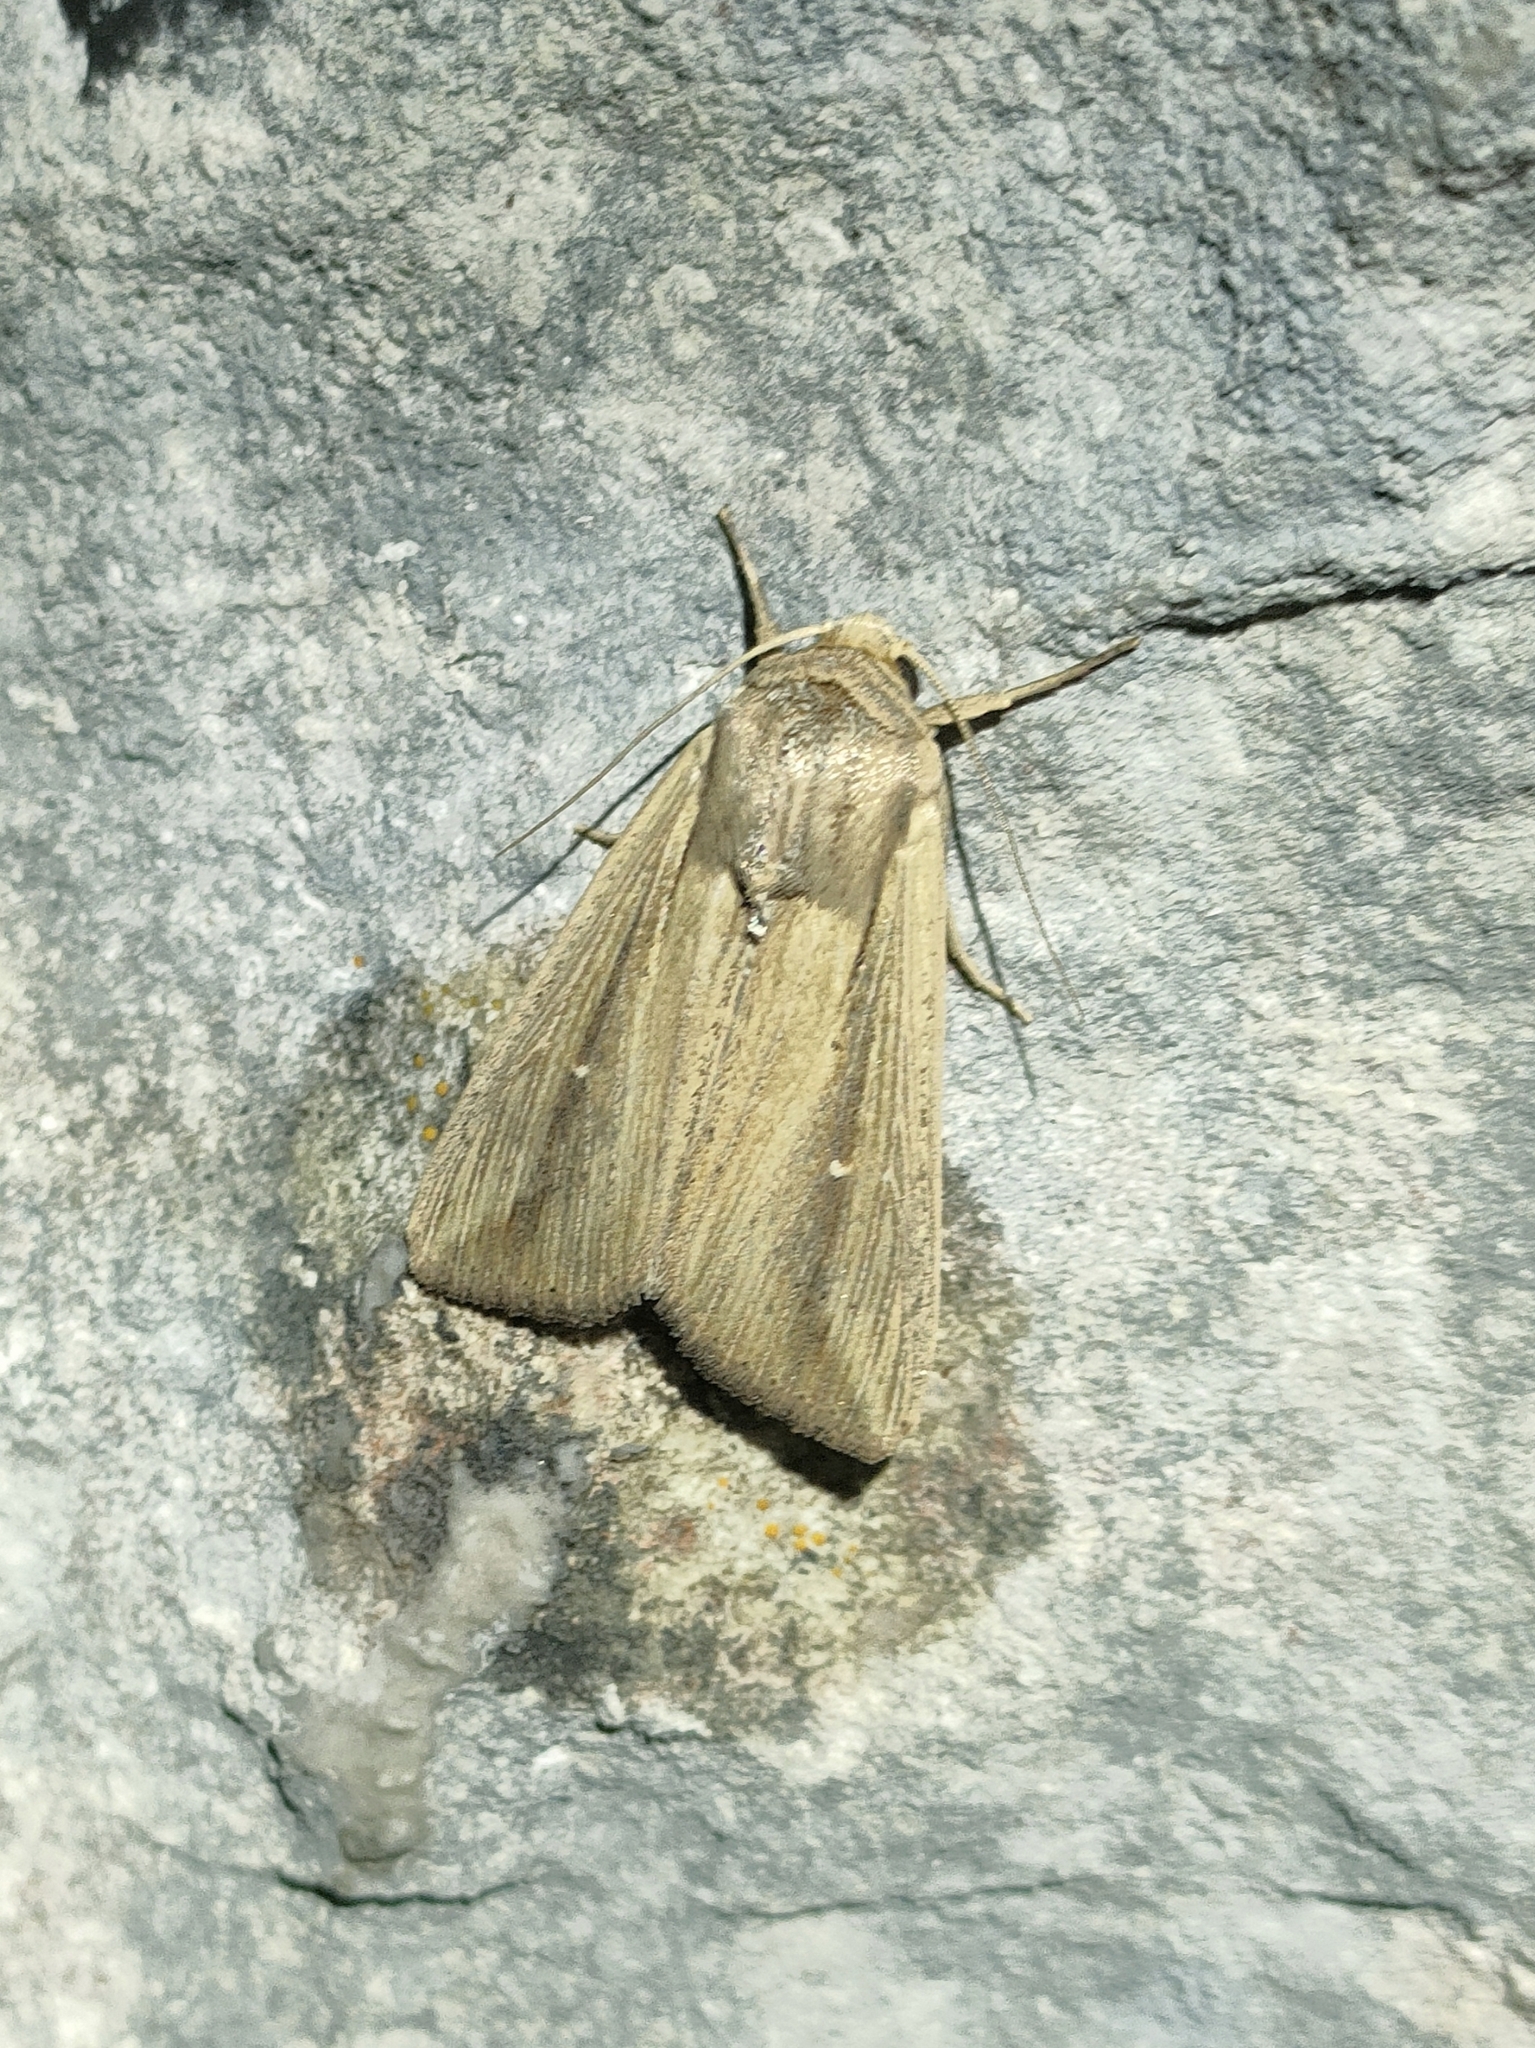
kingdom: Animalia
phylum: Arthropoda
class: Insecta
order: Lepidoptera
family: Noctuidae
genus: Leucania
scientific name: Leucania loreyi
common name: The cosmopolitan
